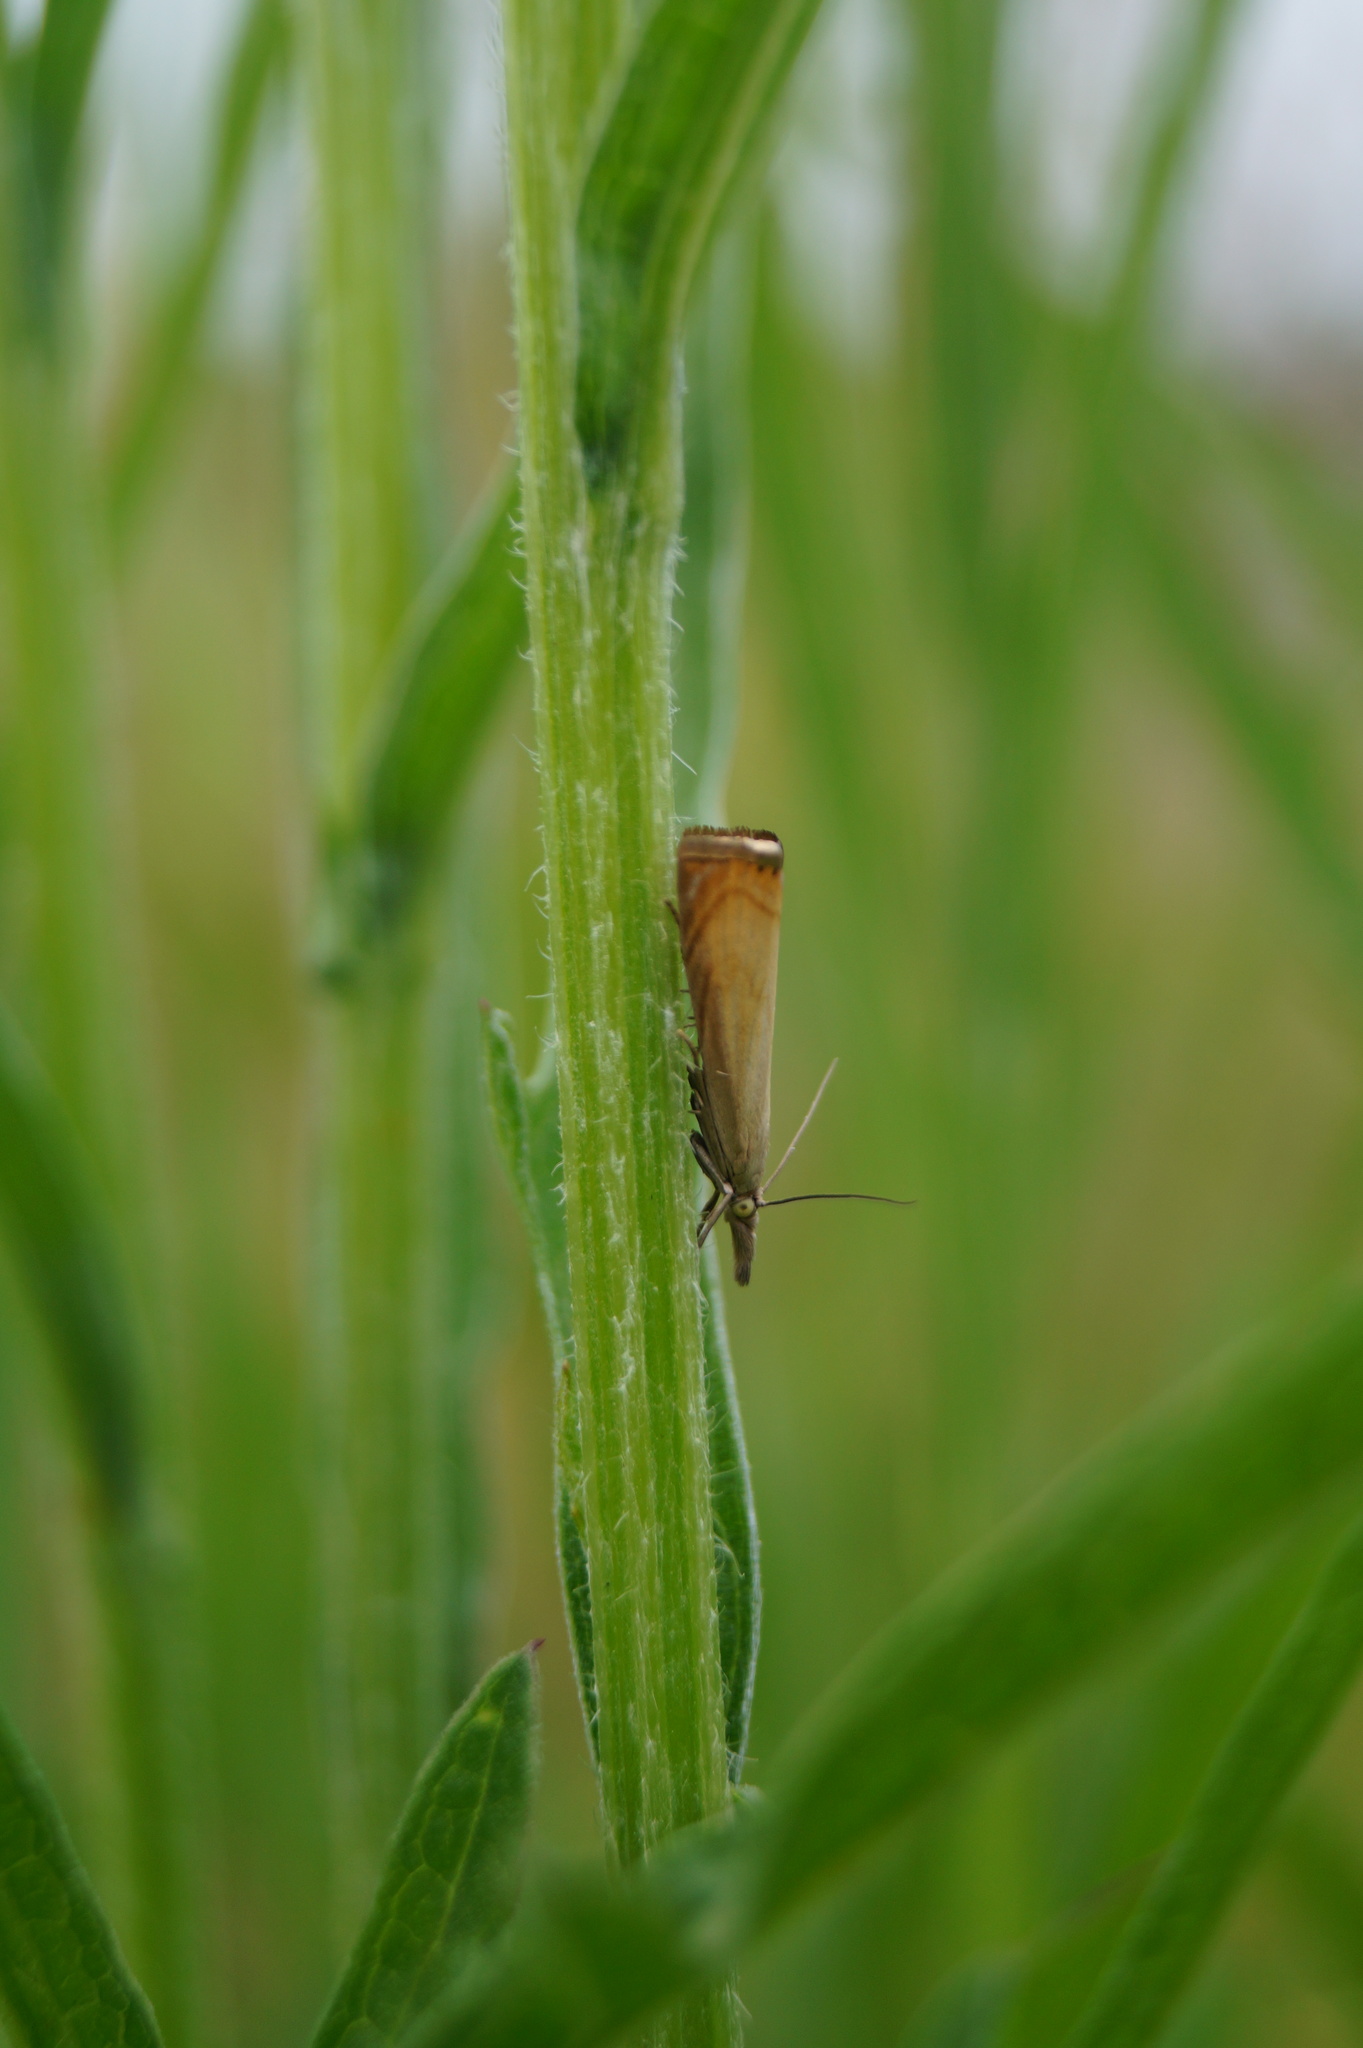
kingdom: Animalia
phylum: Arthropoda
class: Insecta
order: Lepidoptera
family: Crambidae
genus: Chrysoteuchia
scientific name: Chrysoteuchia culmella
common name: Garden grass-veneer
